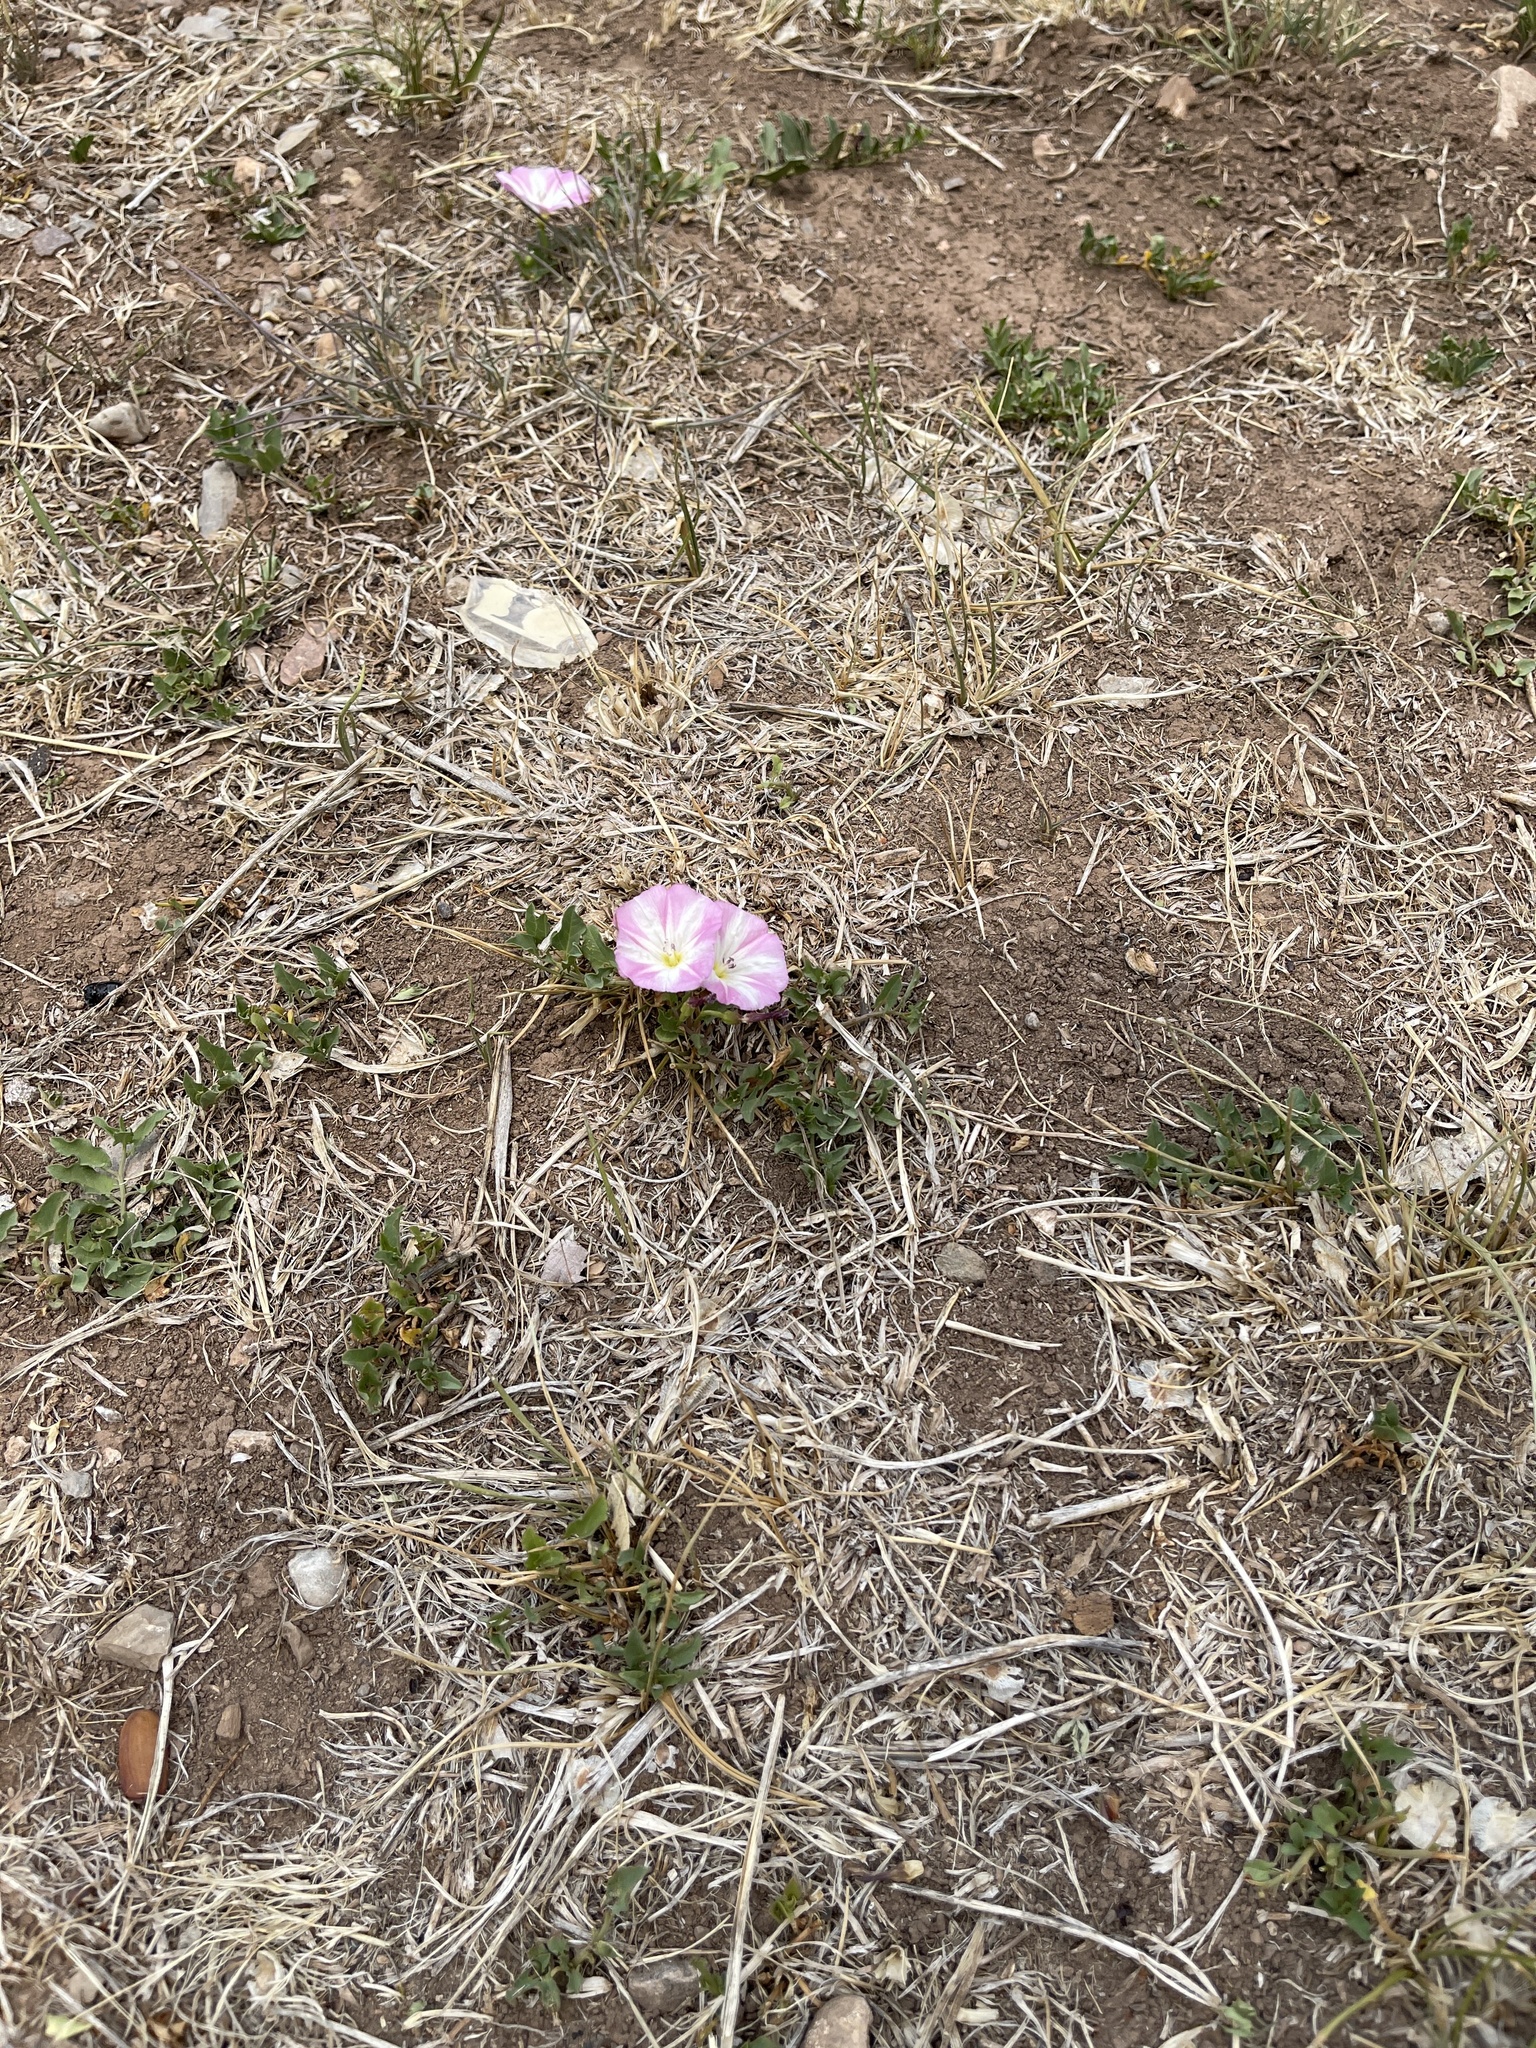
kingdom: Plantae
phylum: Tracheophyta
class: Magnoliopsida
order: Solanales
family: Convolvulaceae
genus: Convolvulus
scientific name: Convolvulus arvensis
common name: Field bindweed
